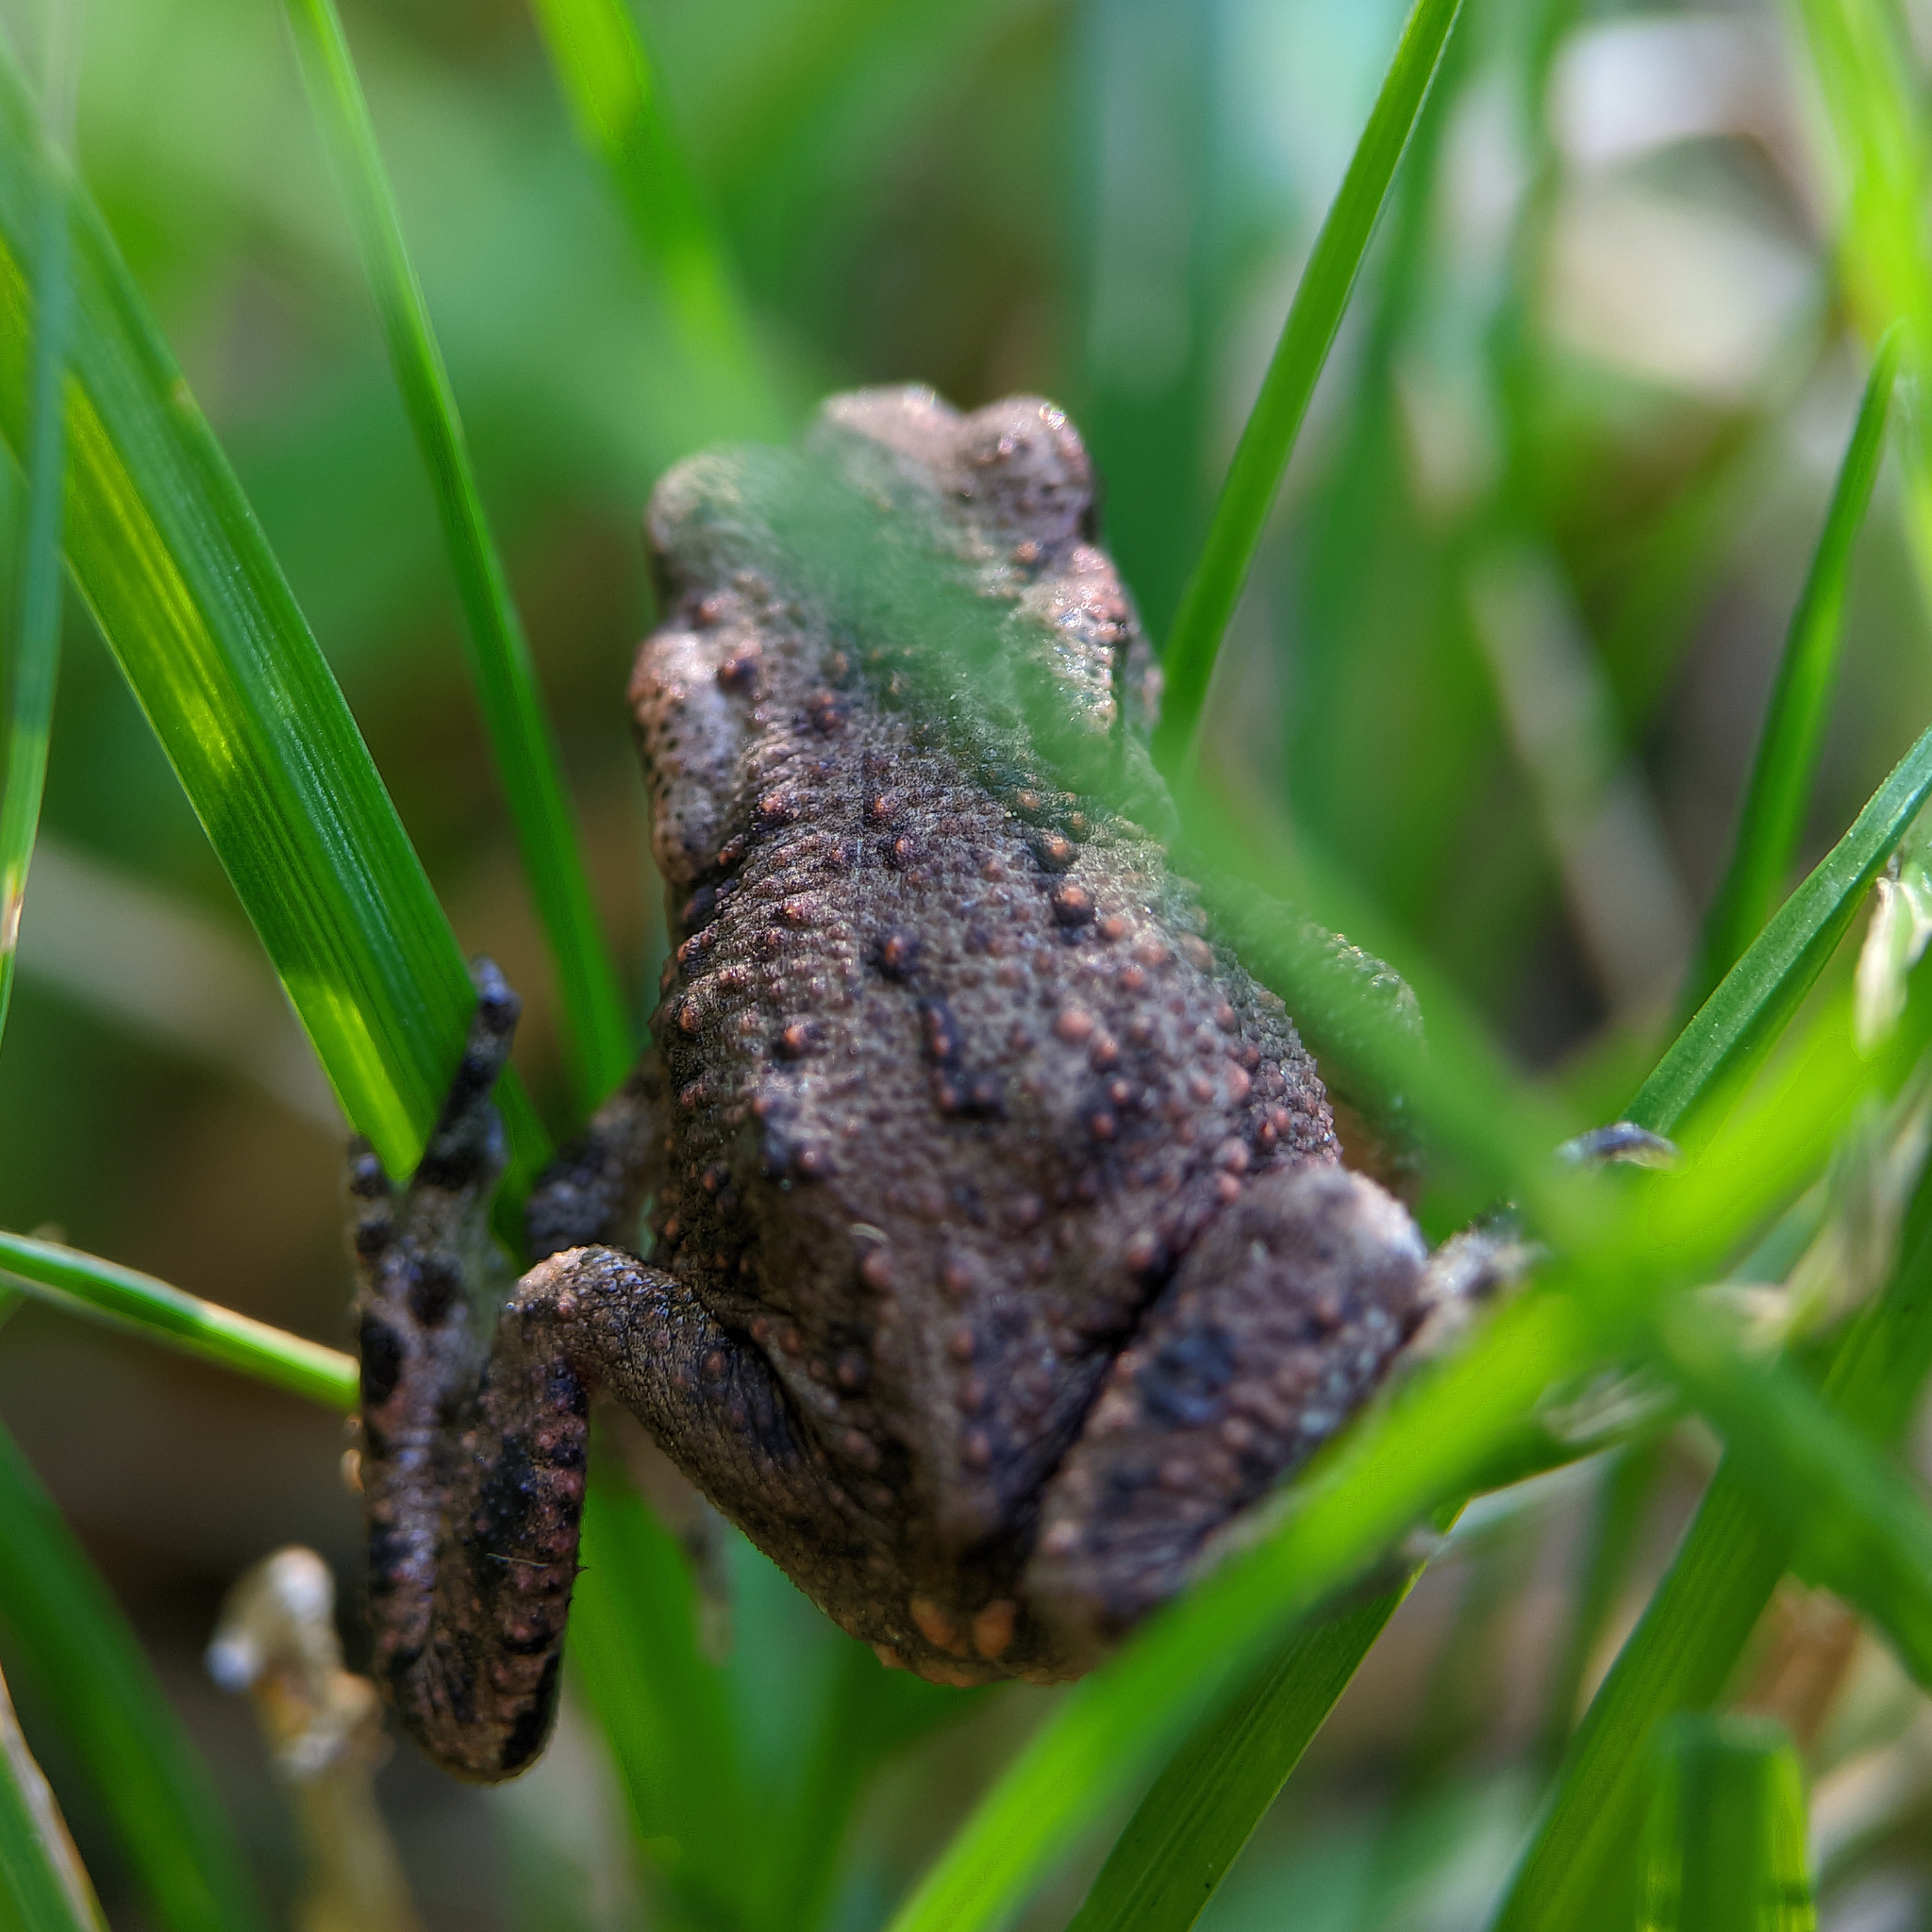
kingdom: Animalia
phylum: Chordata
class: Amphibia
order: Anura
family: Bufonidae
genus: Bufo
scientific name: Bufo bufo
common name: Common toad
